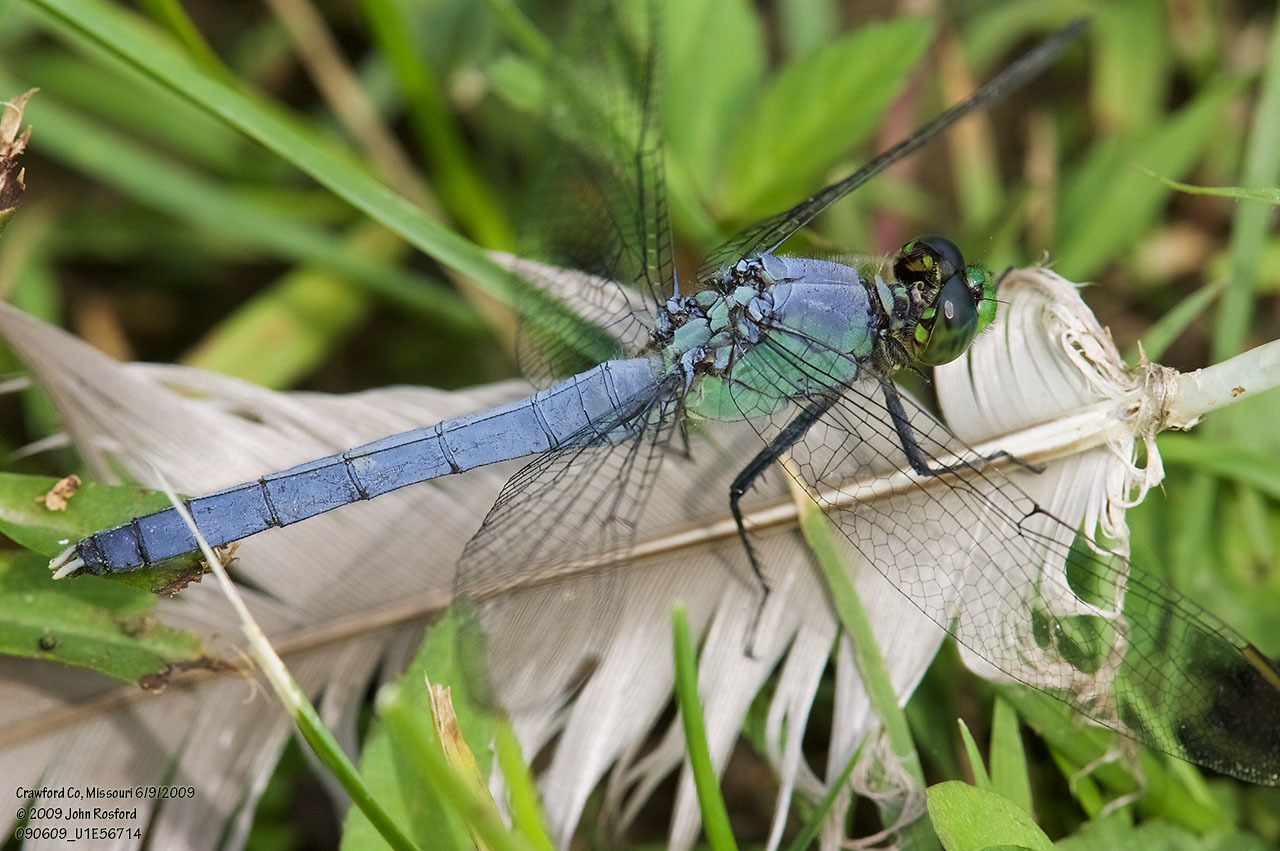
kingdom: Animalia
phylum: Arthropoda
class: Insecta
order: Odonata
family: Libellulidae
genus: Erythemis
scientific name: Erythemis simplicicollis
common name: Eastern pondhawk
